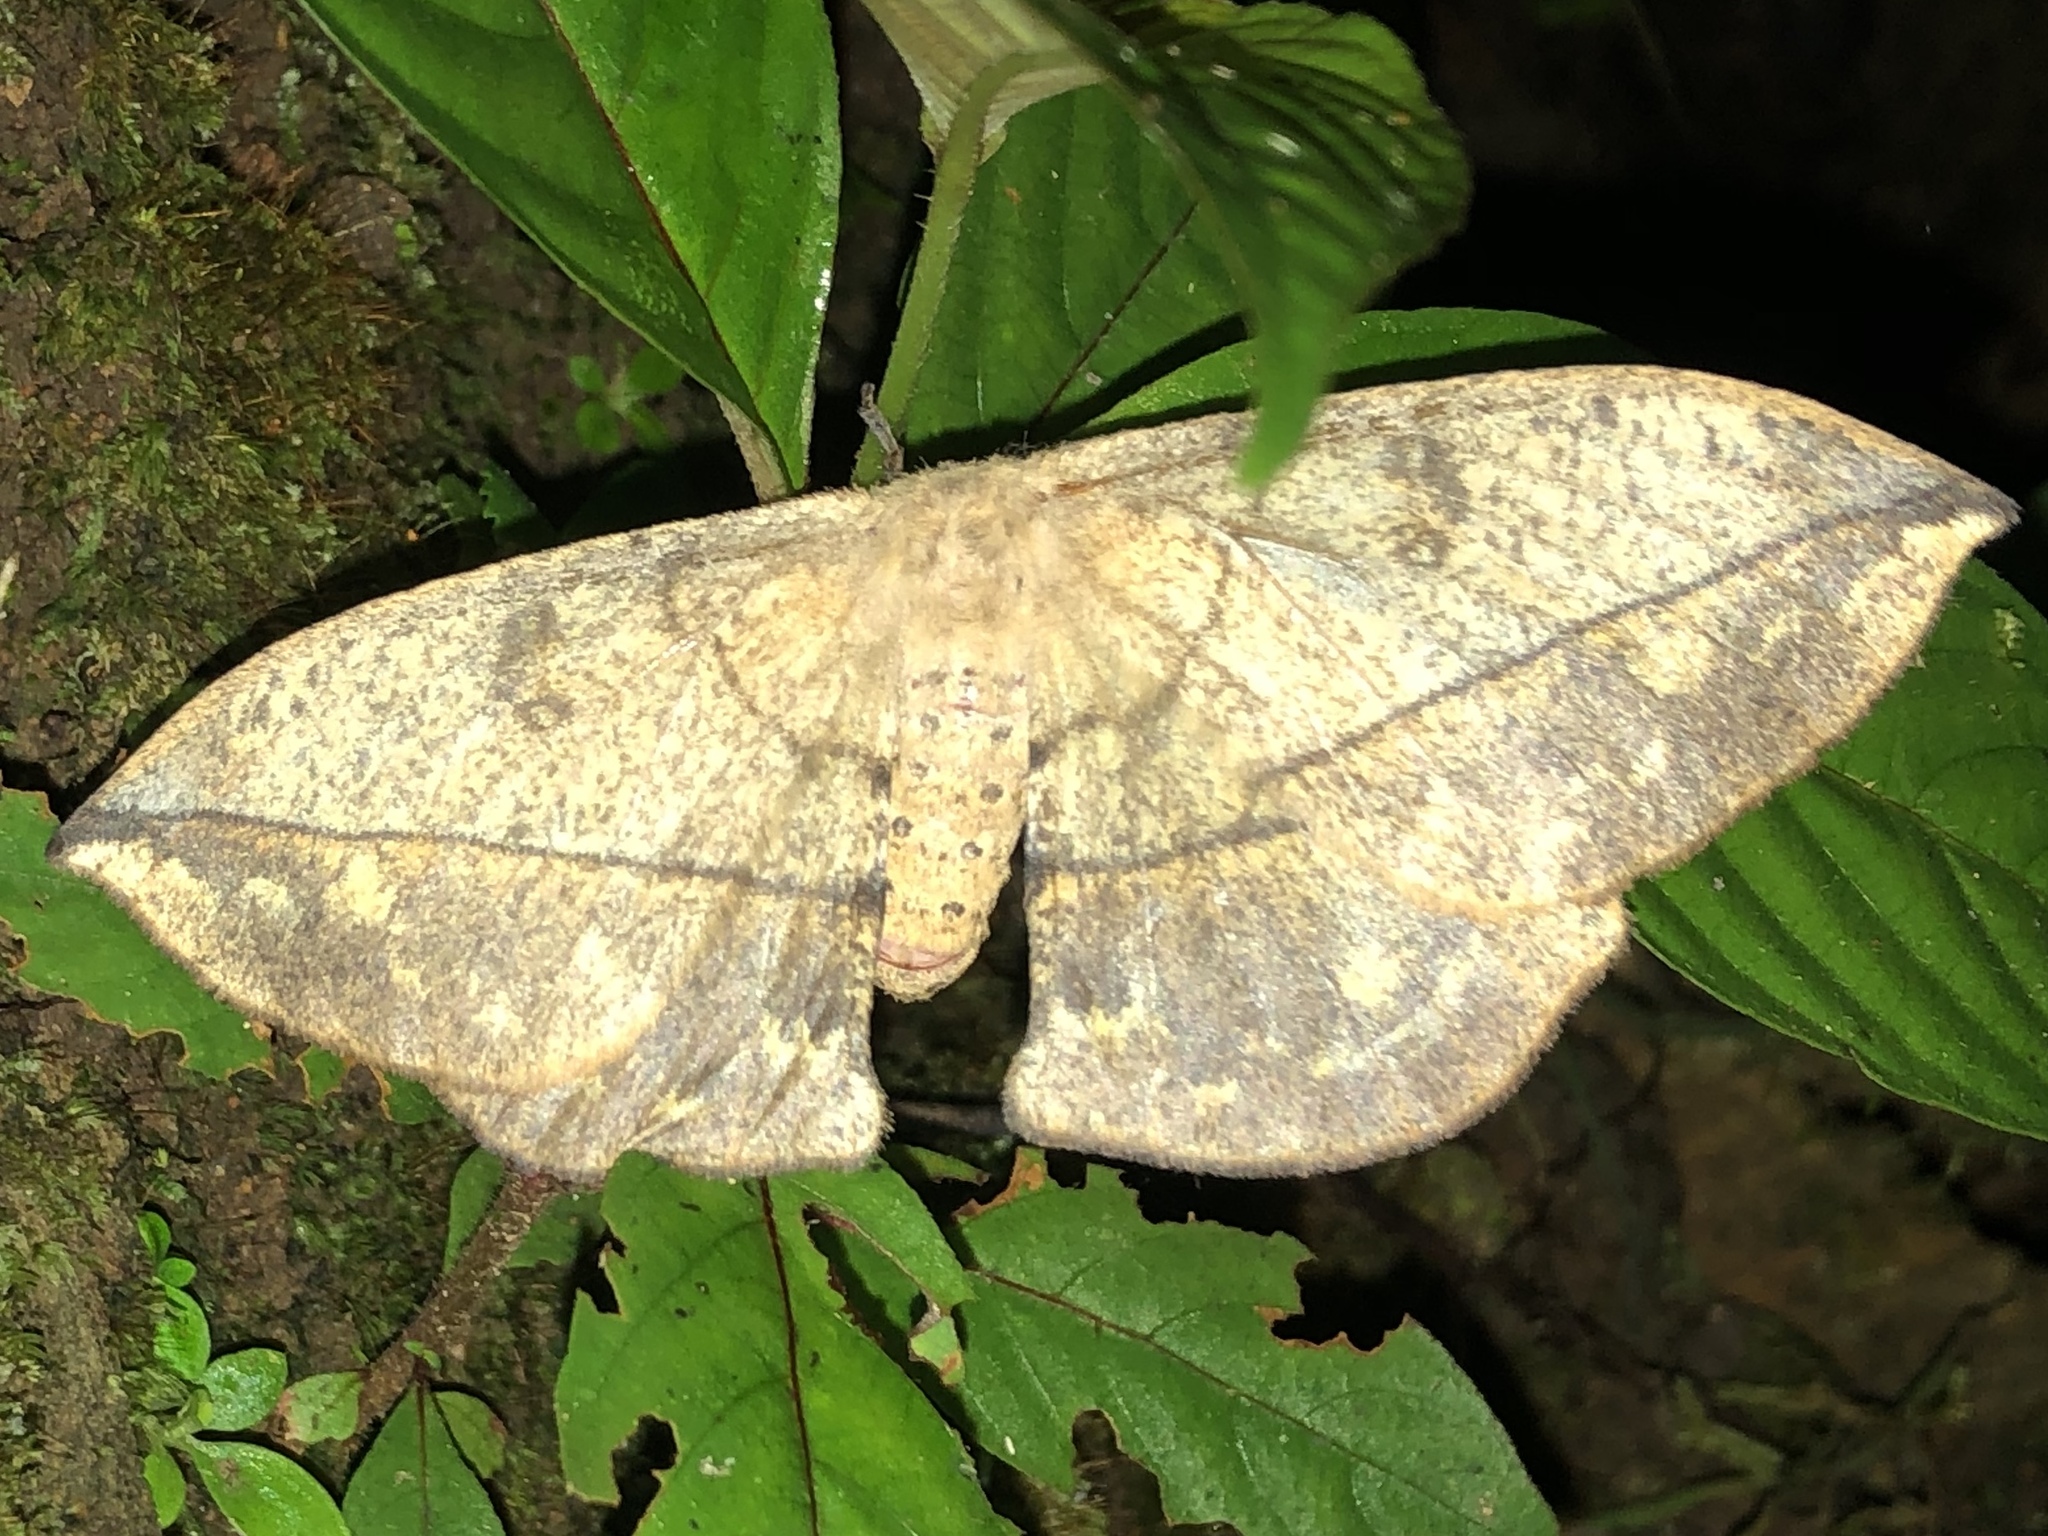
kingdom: Animalia
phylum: Arthropoda
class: Insecta
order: Lepidoptera
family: Saturniidae
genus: Periga
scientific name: Periga costaricana
